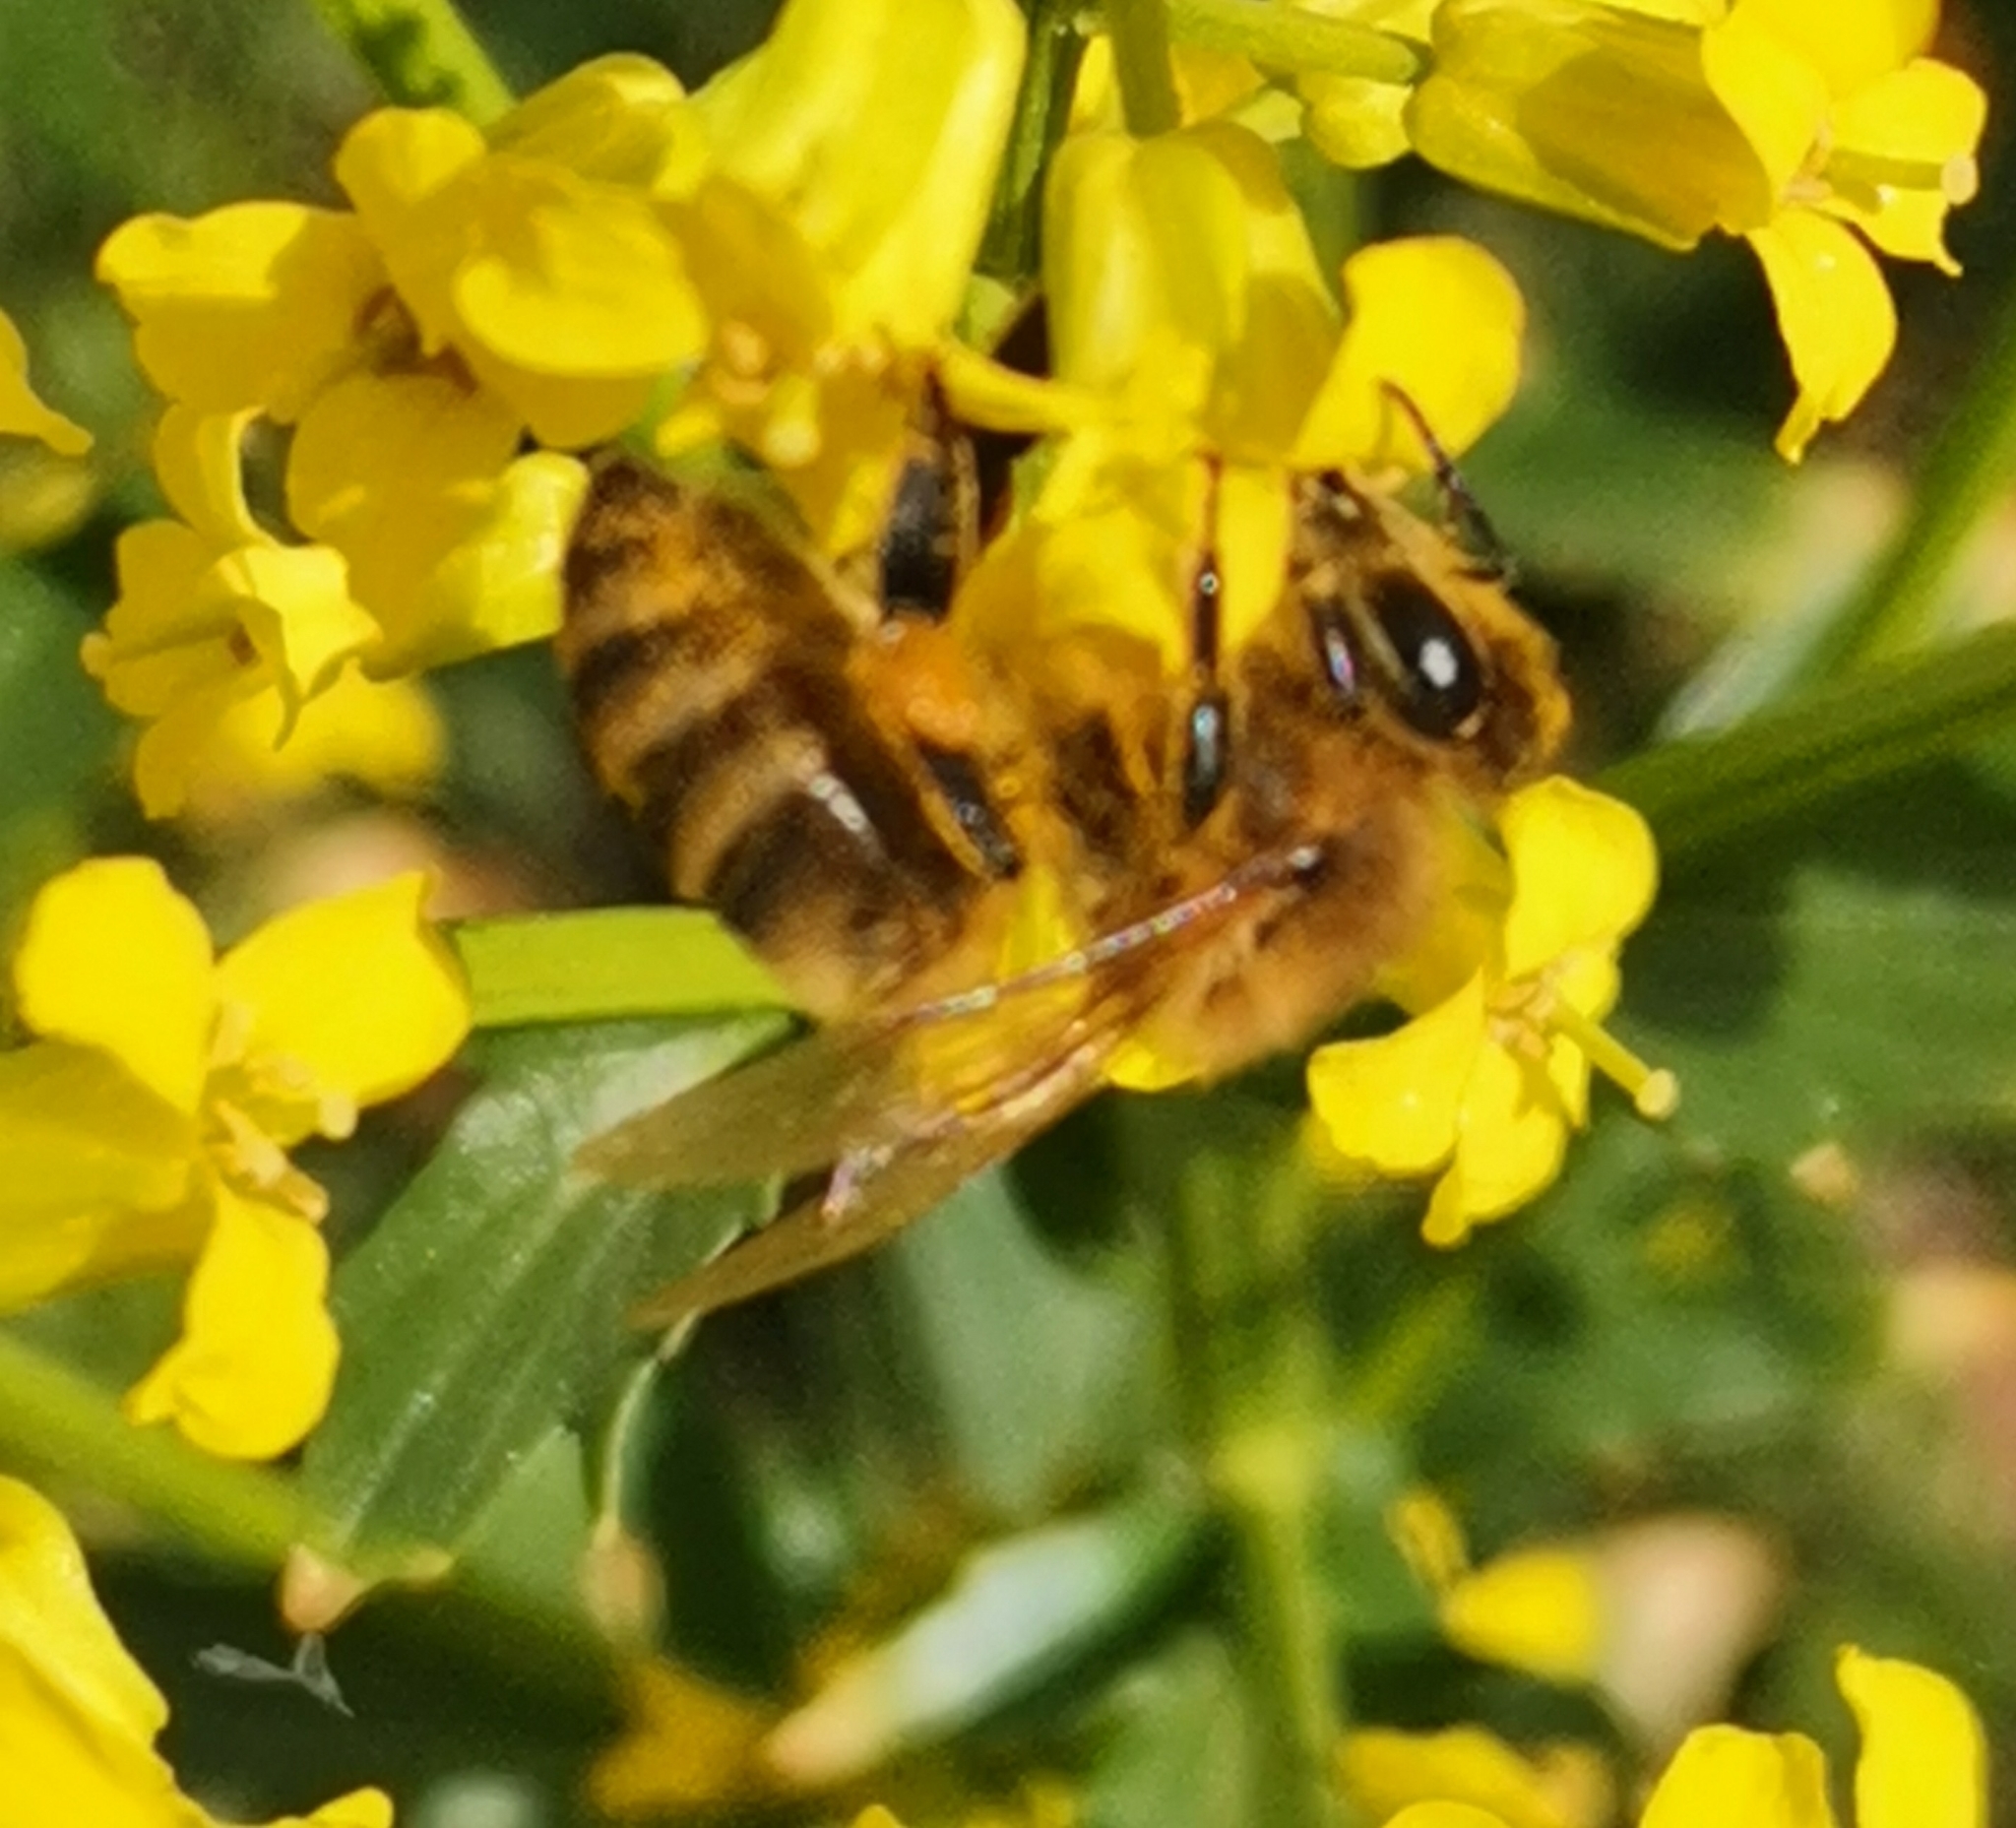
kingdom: Animalia
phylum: Arthropoda
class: Insecta
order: Hymenoptera
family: Apidae
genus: Apis
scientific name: Apis mellifera
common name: Honey bee
